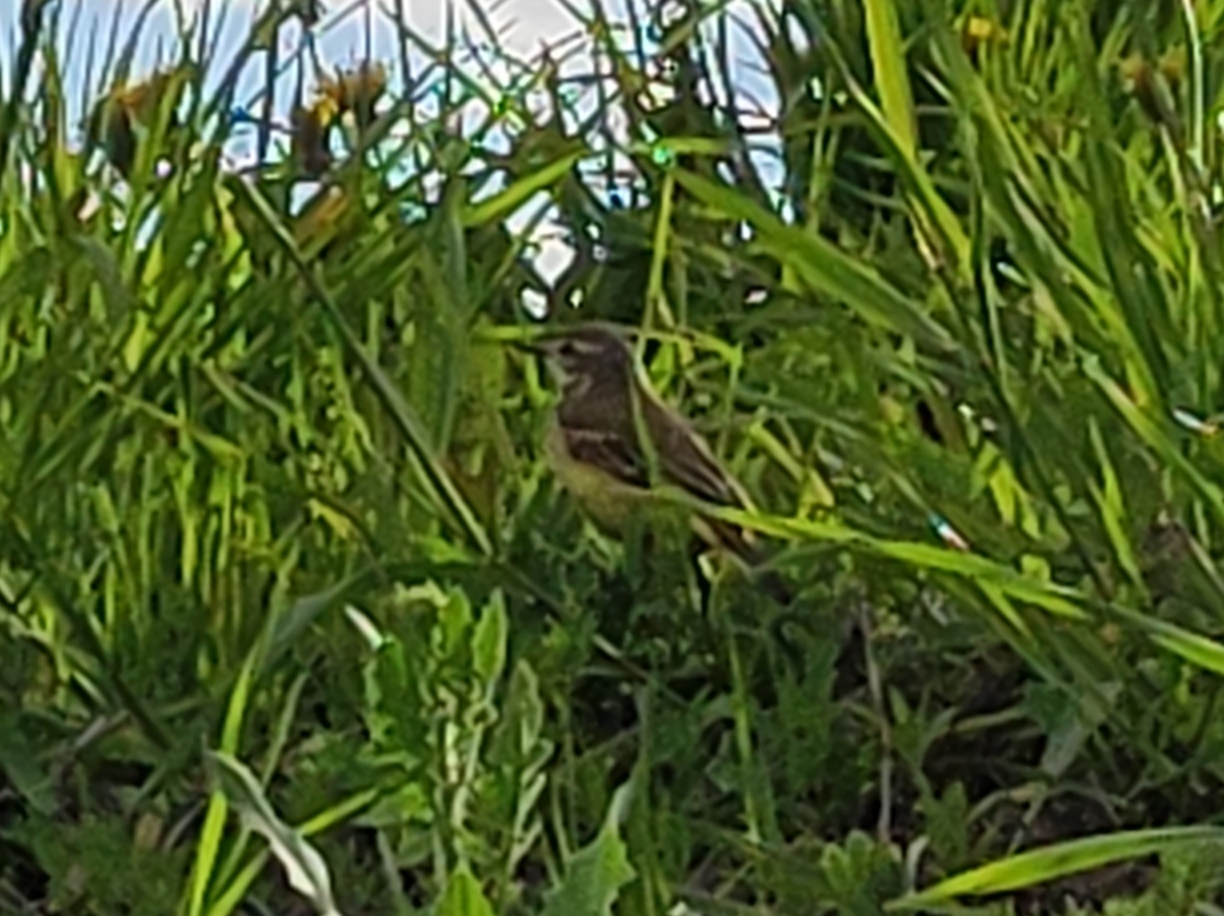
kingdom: Animalia
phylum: Chordata
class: Aves
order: Passeriformes
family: Motacillidae
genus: Motacilla
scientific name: Motacilla flava
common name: Western yellow wagtail
